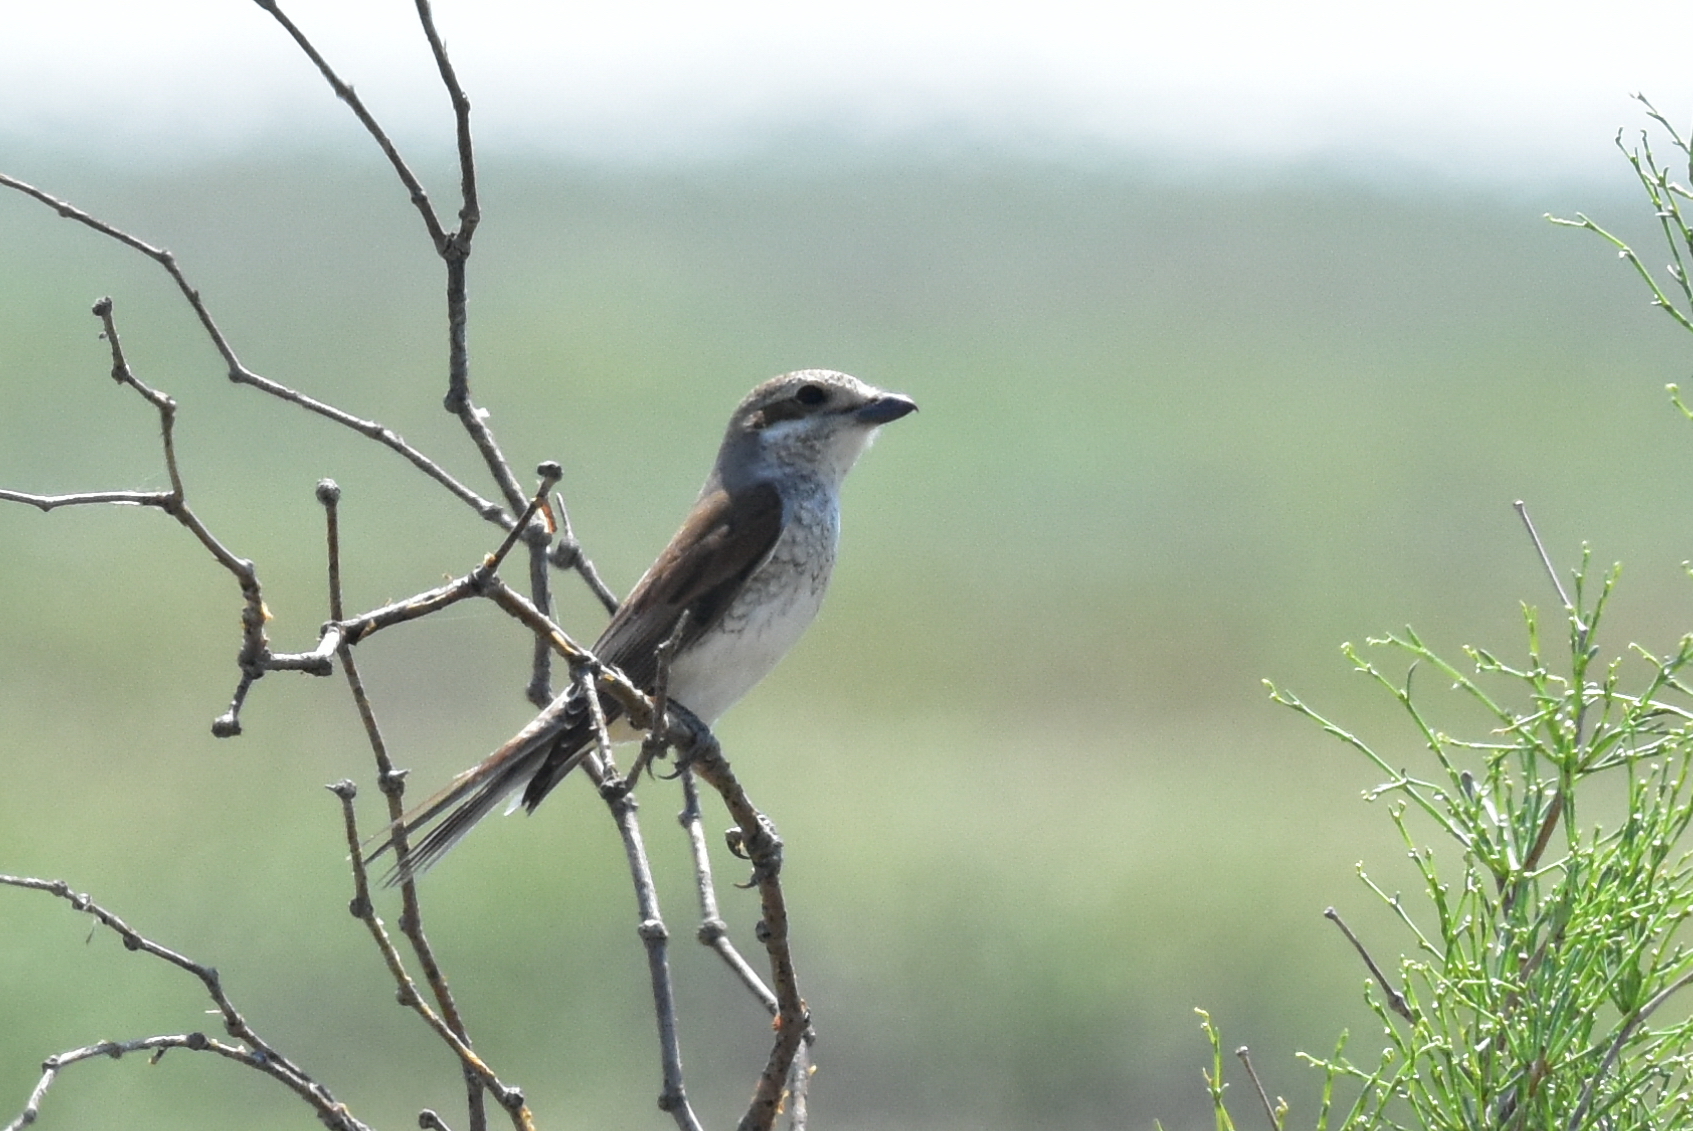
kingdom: Animalia
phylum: Chordata
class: Aves
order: Passeriformes
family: Laniidae
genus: Lanius
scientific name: Lanius collurio
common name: Red-backed shrike
